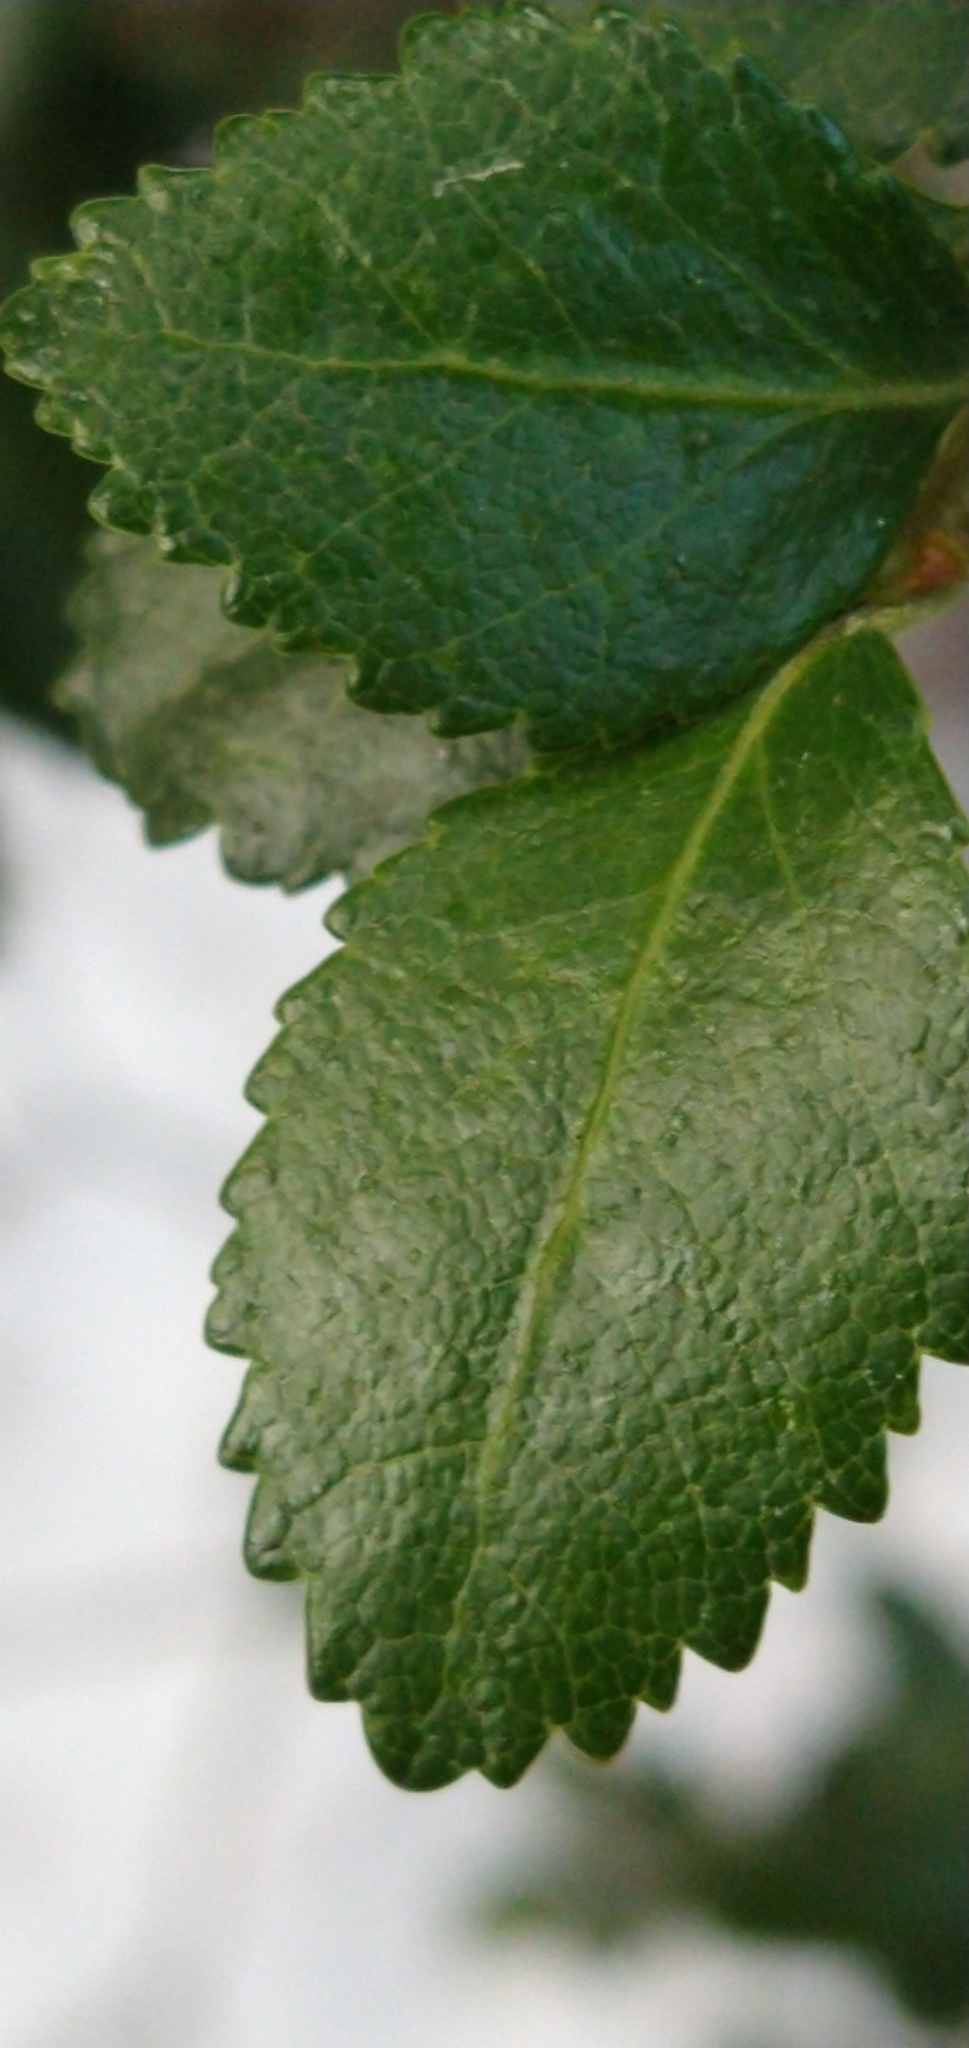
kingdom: Plantae
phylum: Tracheophyta
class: Magnoliopsida
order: Fagales
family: Nothofagaceae
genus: Nothofagus
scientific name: Nothofagus betuloides
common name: Magellan's beech
